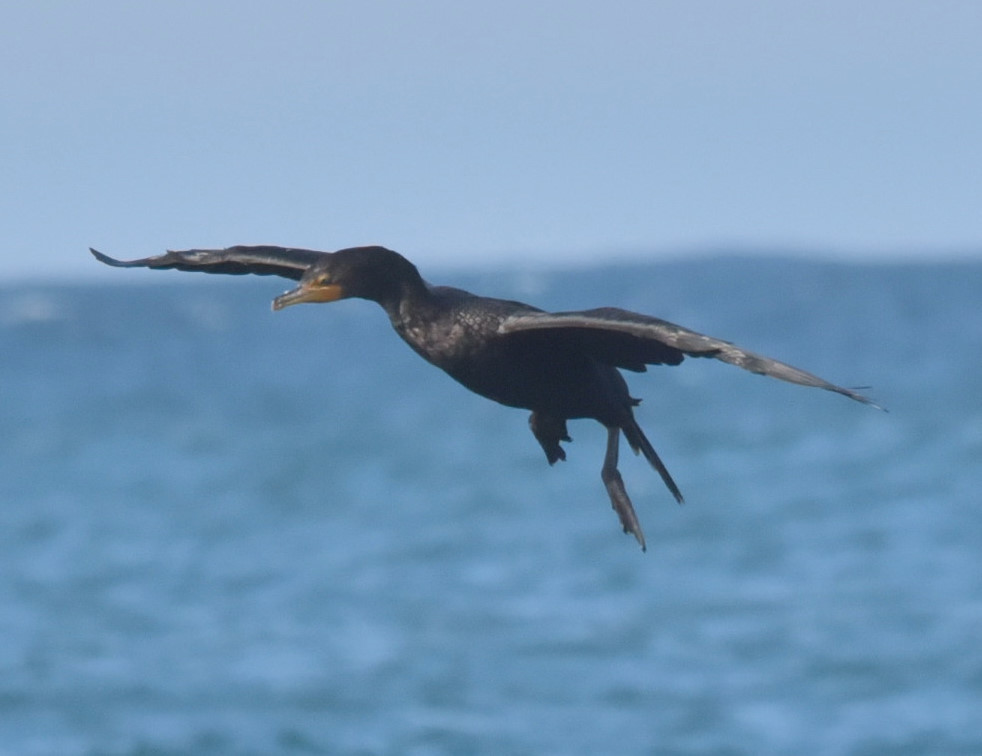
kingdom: Animalia
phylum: Chordata
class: Aves
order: Suliformes
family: Phalacrocoracidae
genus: Phalacrocorax
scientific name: Phalacrocorax auritus
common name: Double-crested cormorant
